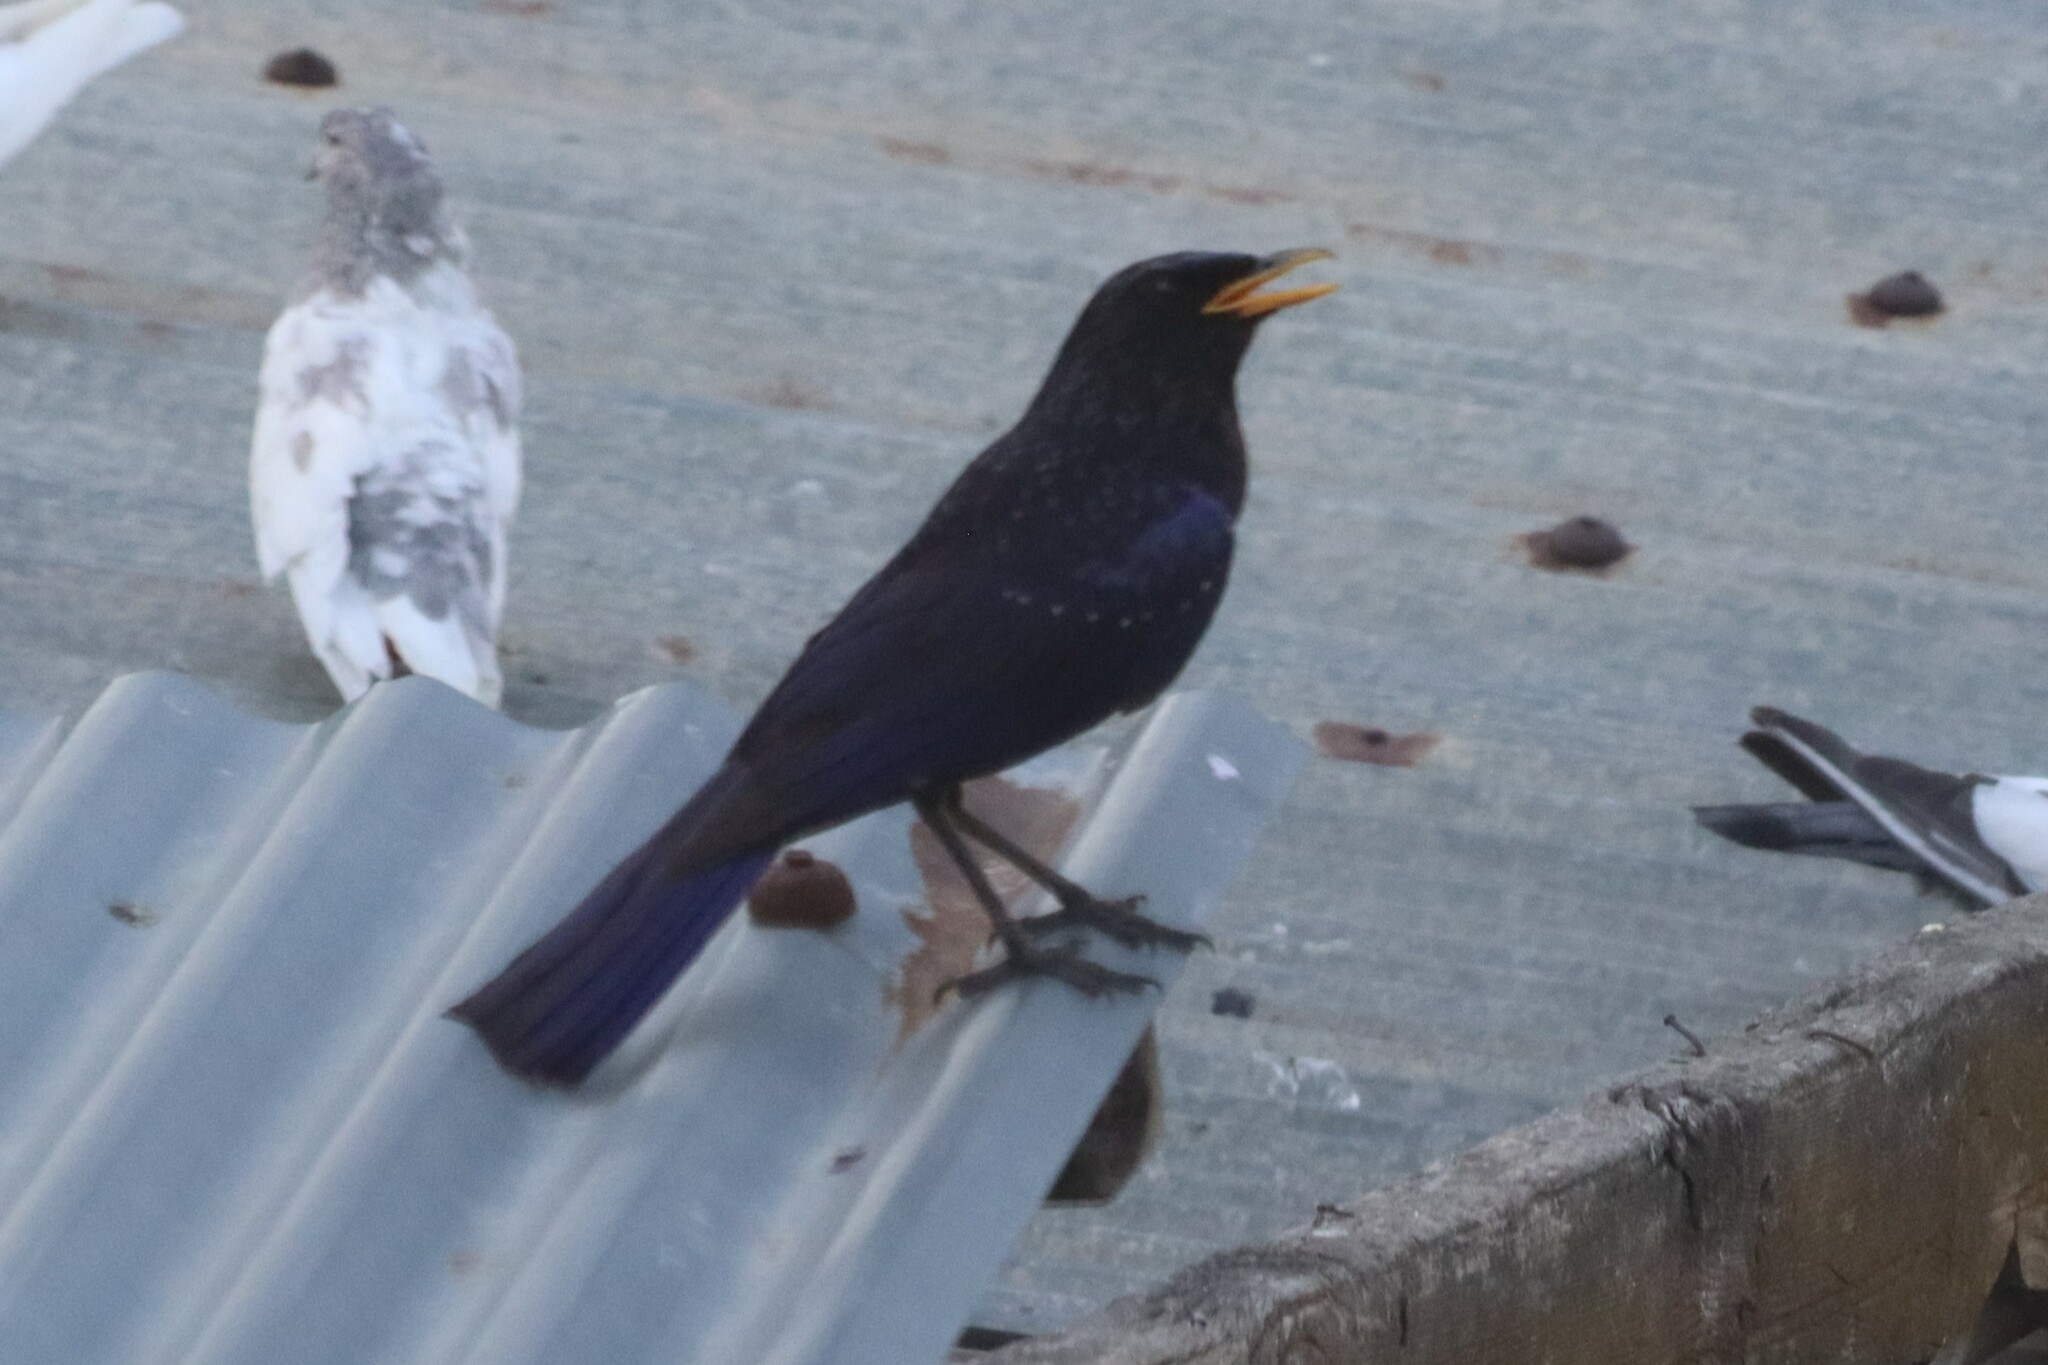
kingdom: Animalia
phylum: Chordata
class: Aves
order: Passeriformes
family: Muscicapidae
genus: Myophonus
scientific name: Myophonus caeruleus
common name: Blue whistling-thrush
